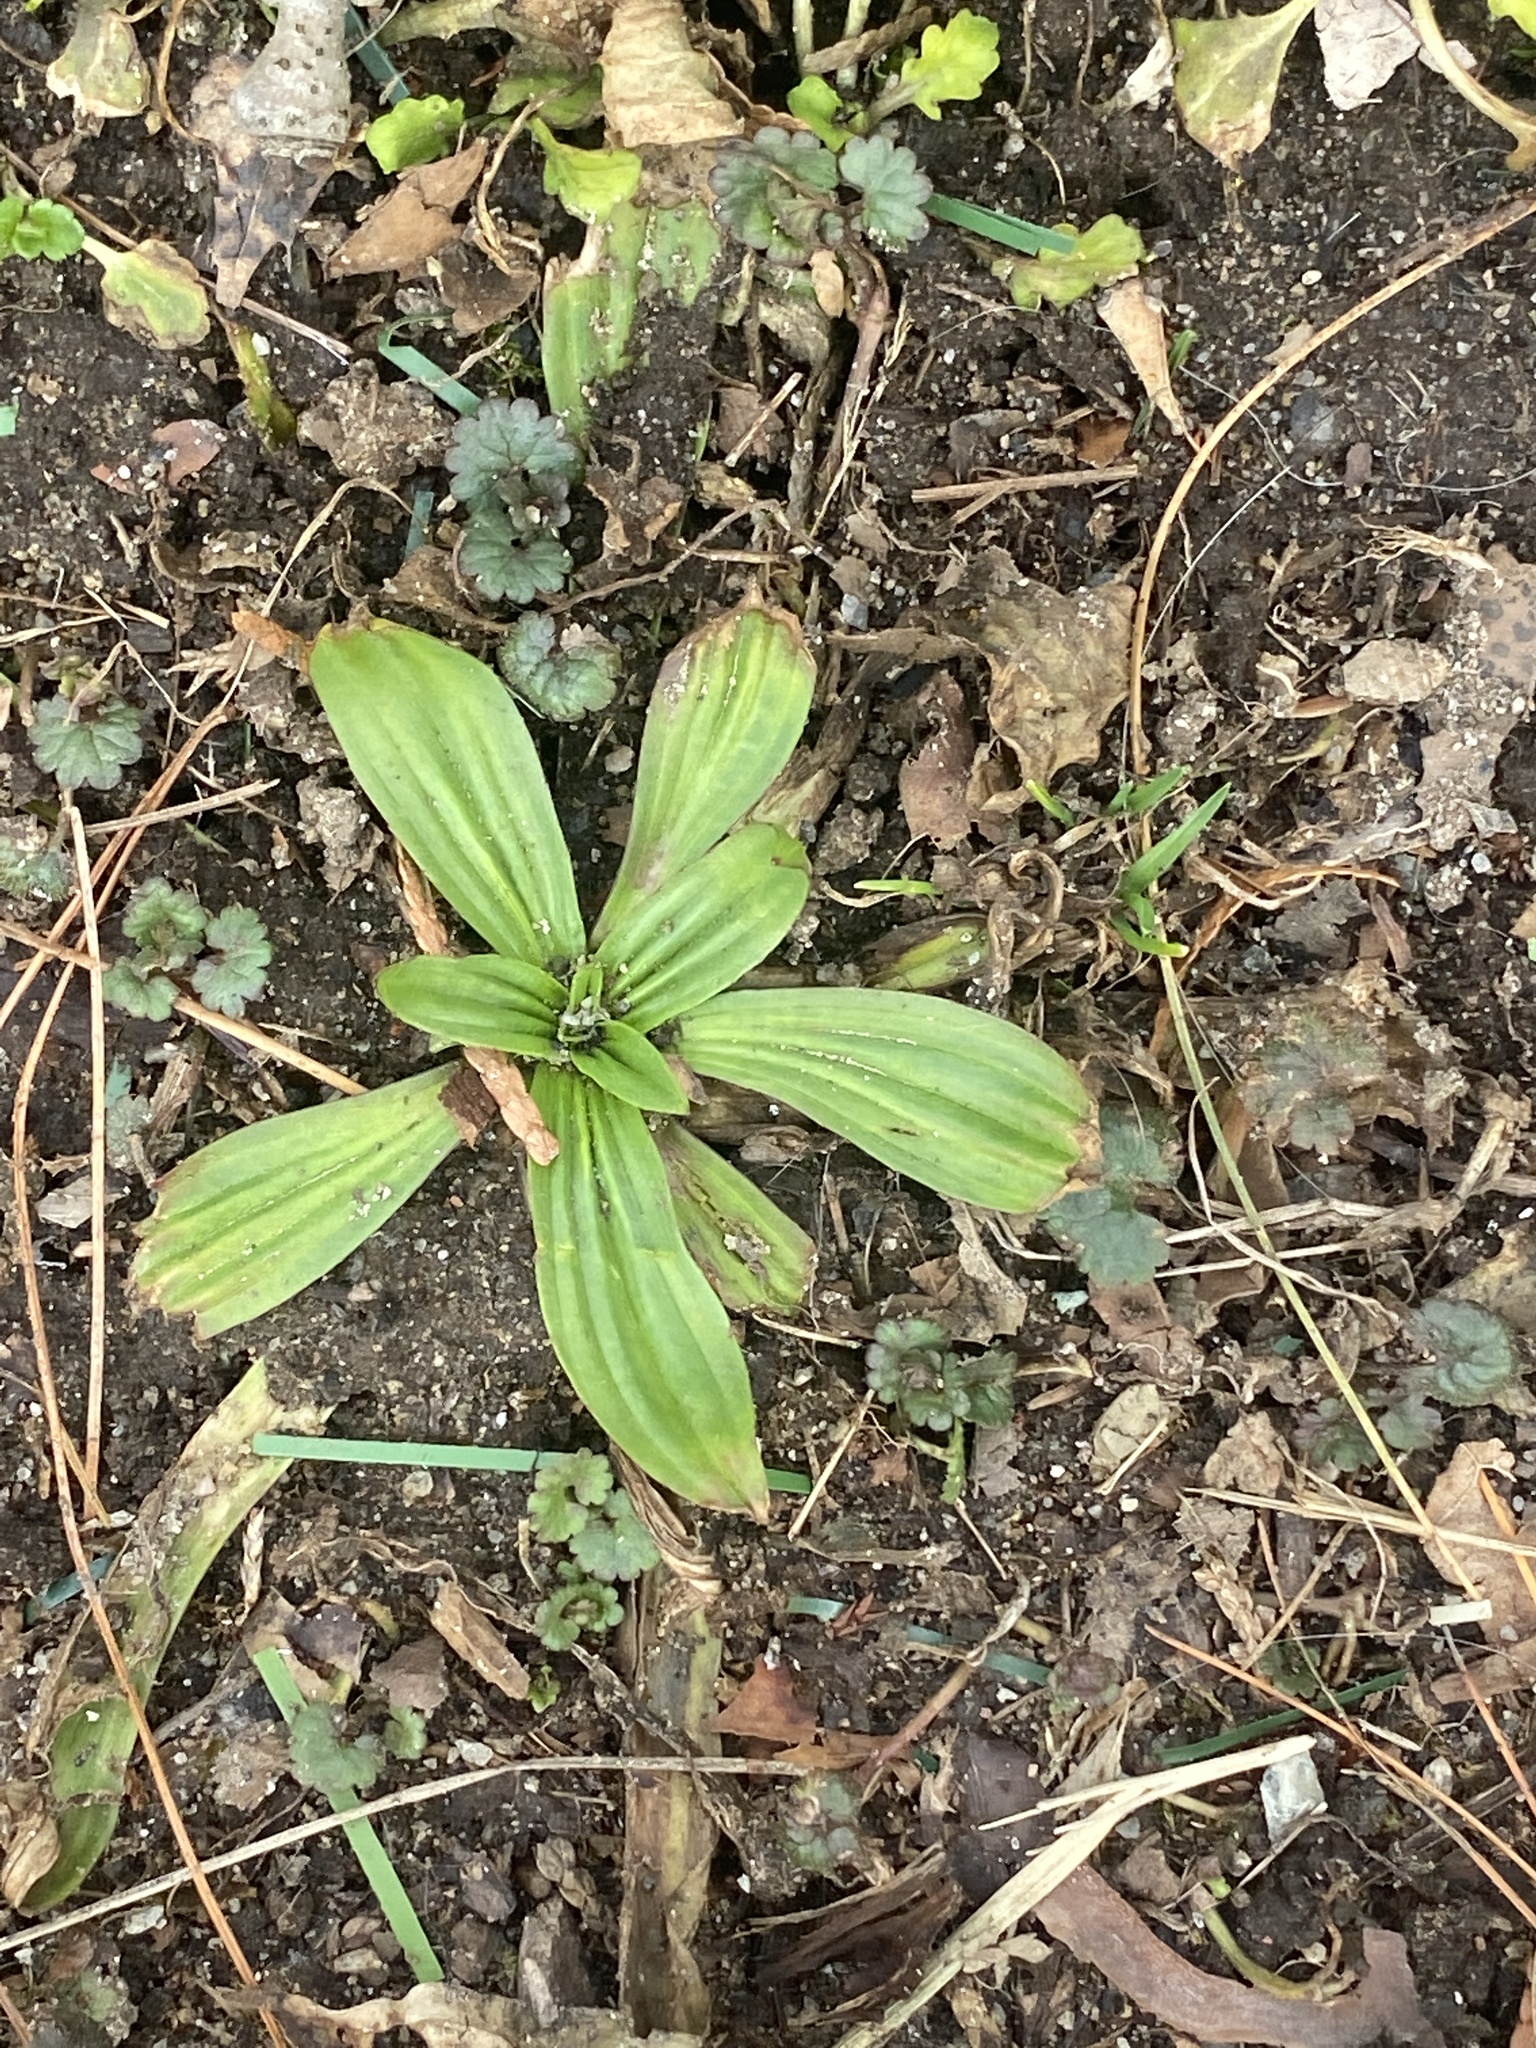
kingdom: Plantae
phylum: Tracheophyta
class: Magnoliopsida
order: Lamiales
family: Plantaginaceae
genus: Plantago
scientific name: Plantago lanceolata
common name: Ribwort plantain
